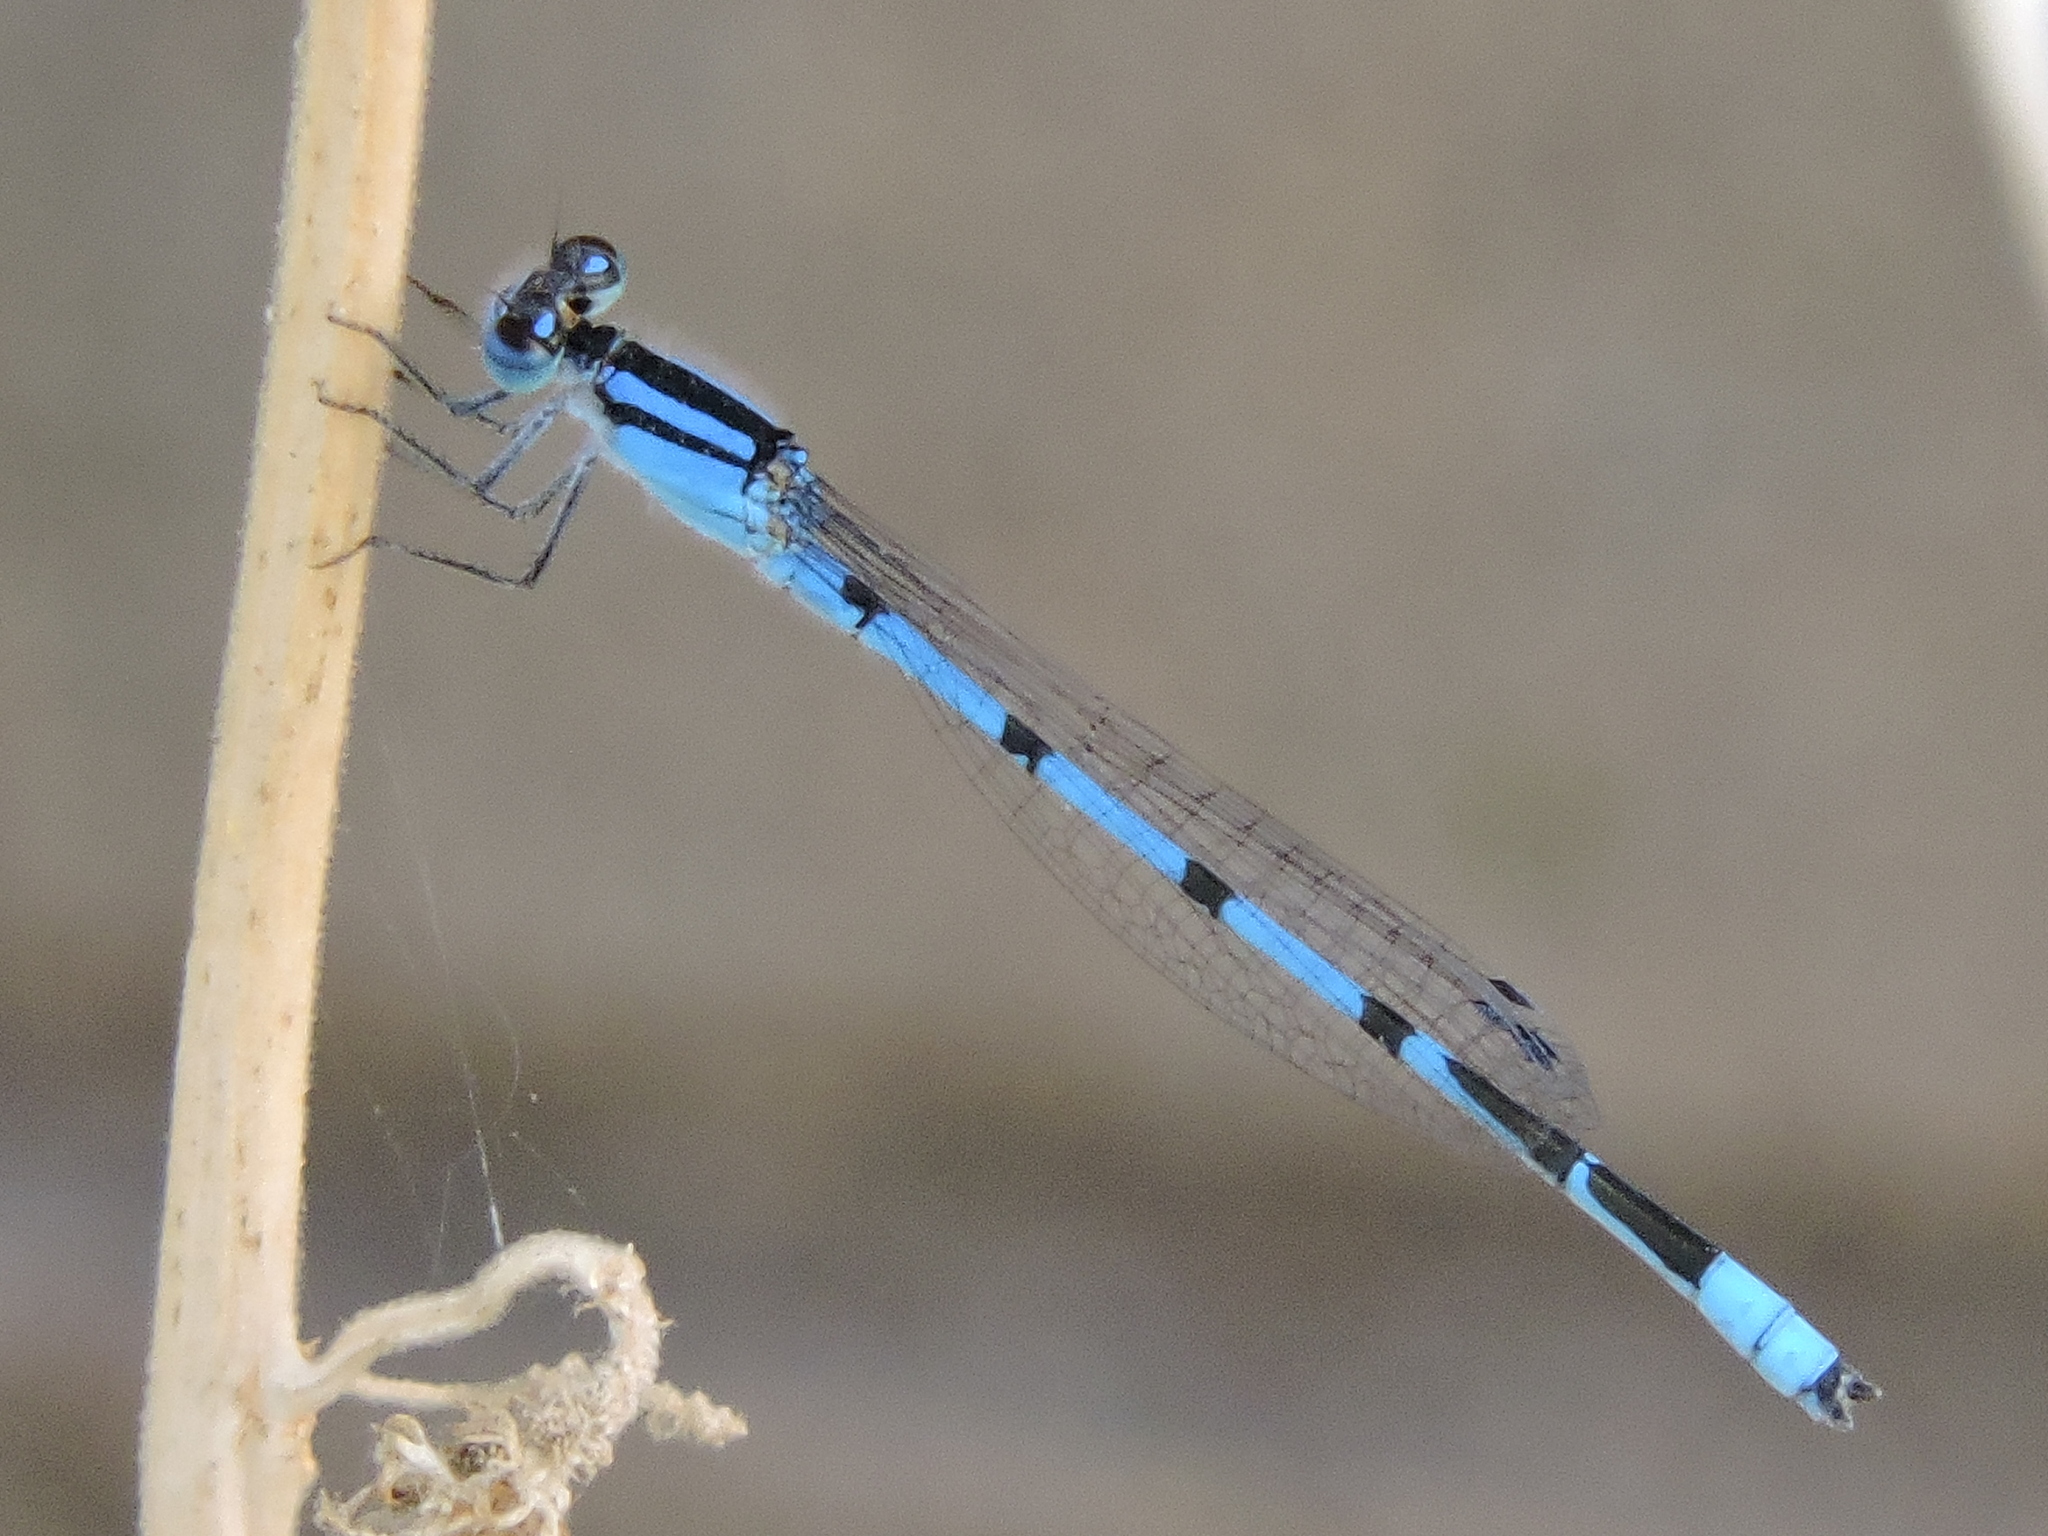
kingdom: Animalia
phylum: Arthropoda
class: Insecta
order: Odonata
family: Coenagrionidae
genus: Enallagma
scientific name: Enallagma civile
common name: Damselfly
